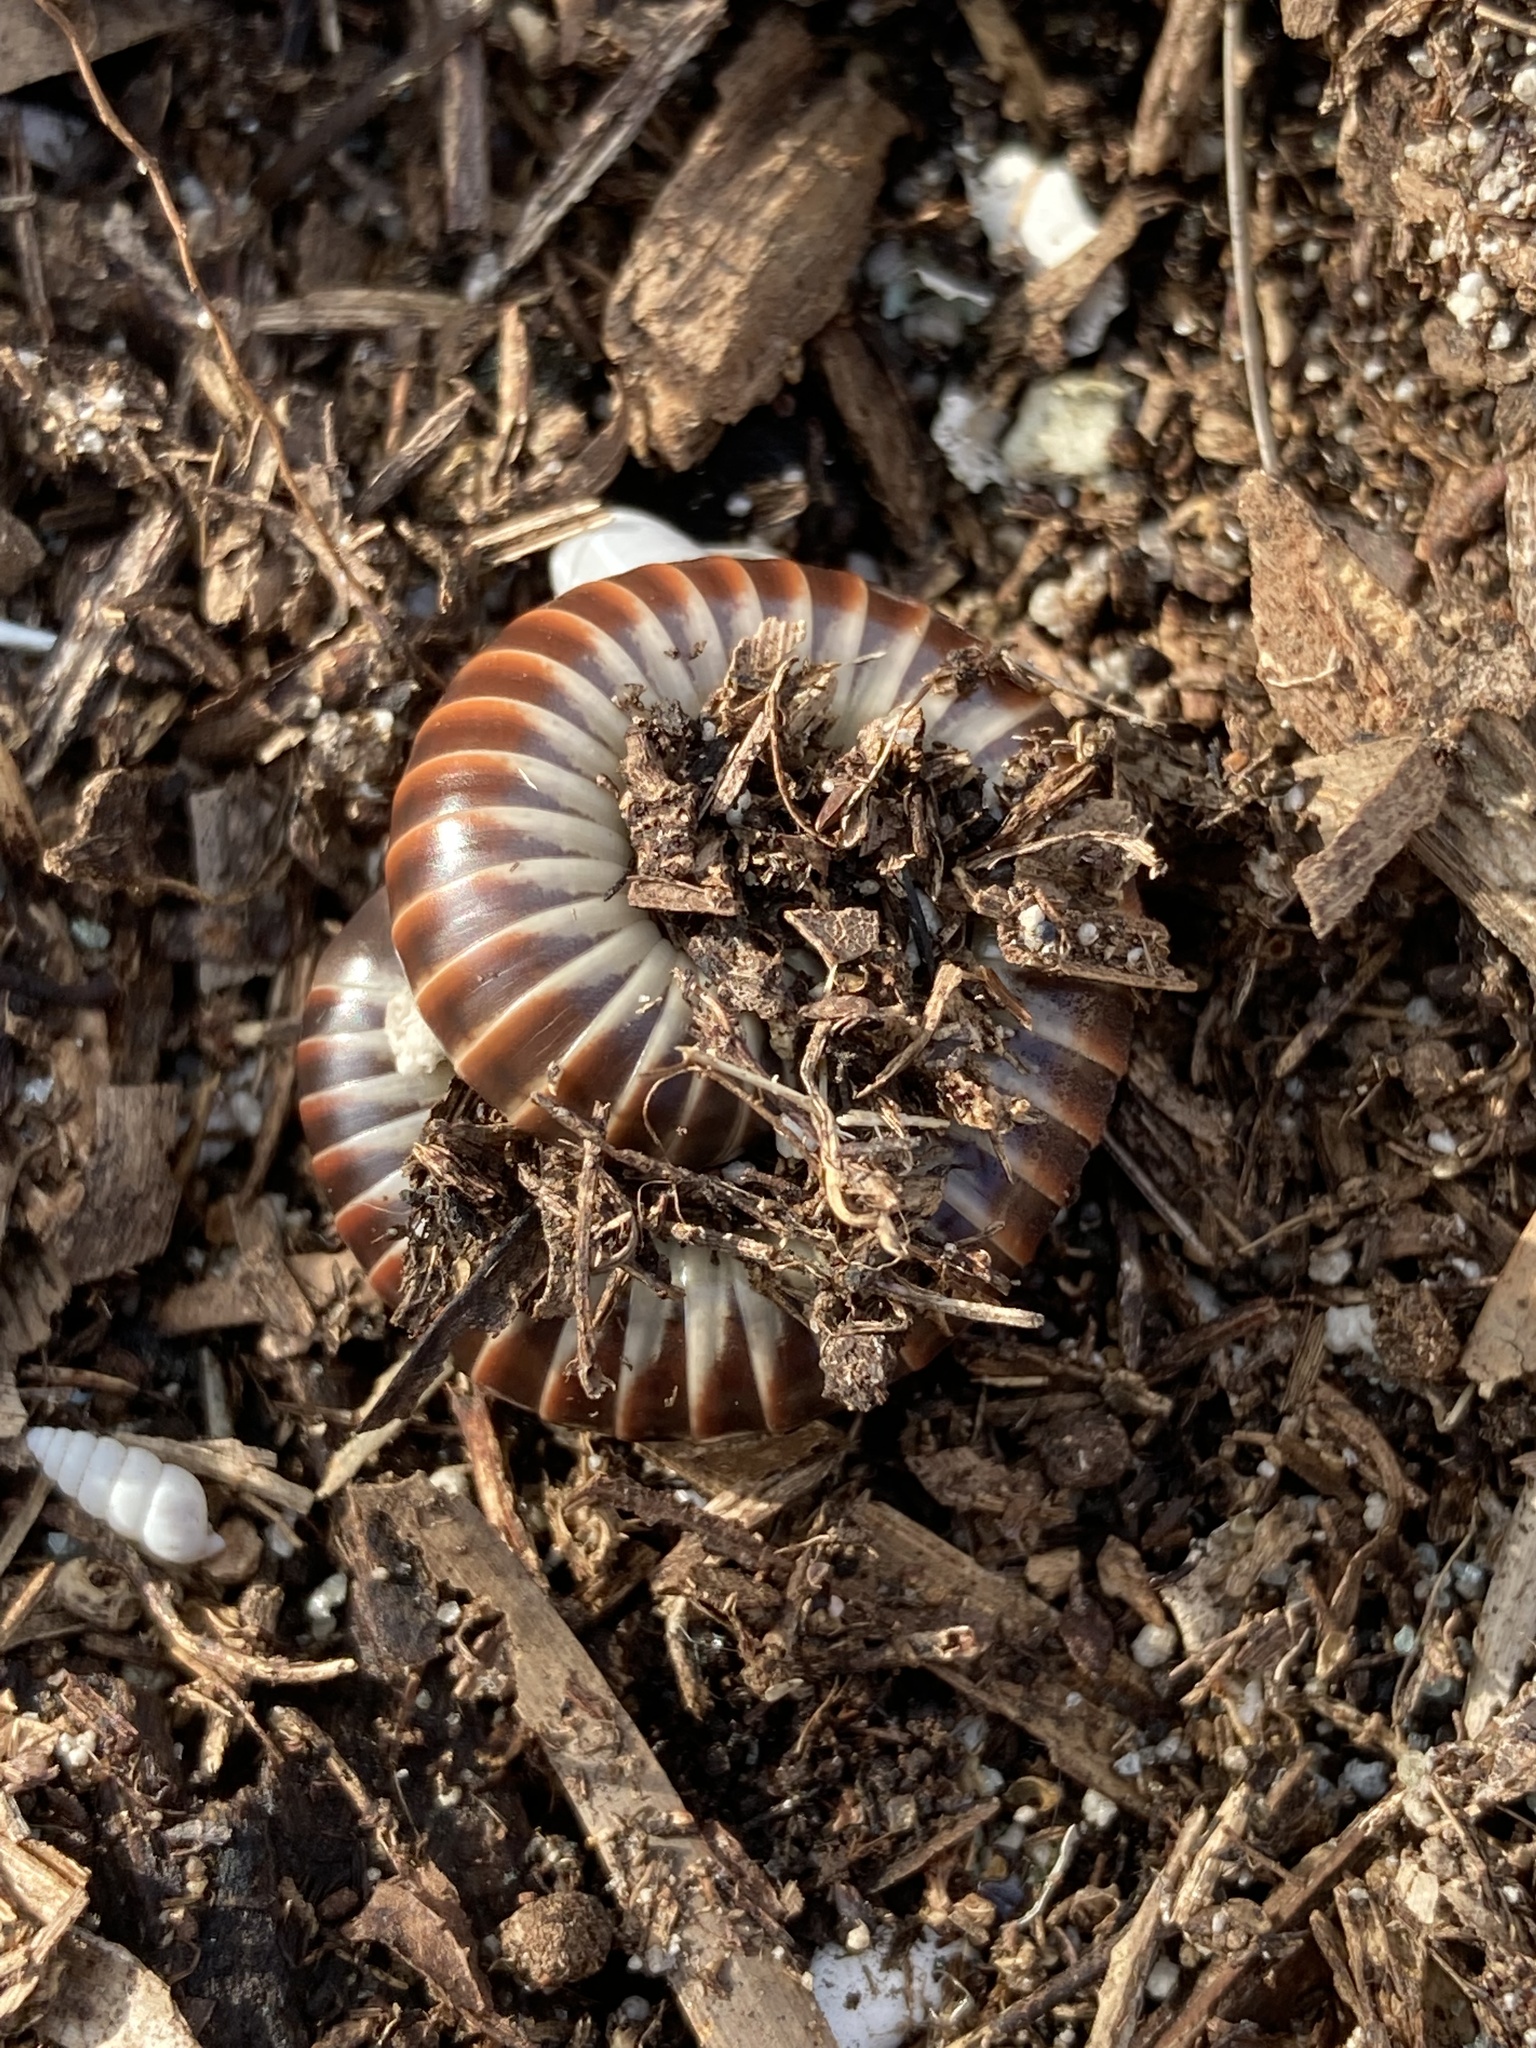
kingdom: Animalia
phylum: Arthropoda
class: Diplopoda
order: Spirobolida
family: Spirobolidae
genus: Chicobolus
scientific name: Chicobolus spinigerus
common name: Florida ivory millipede
